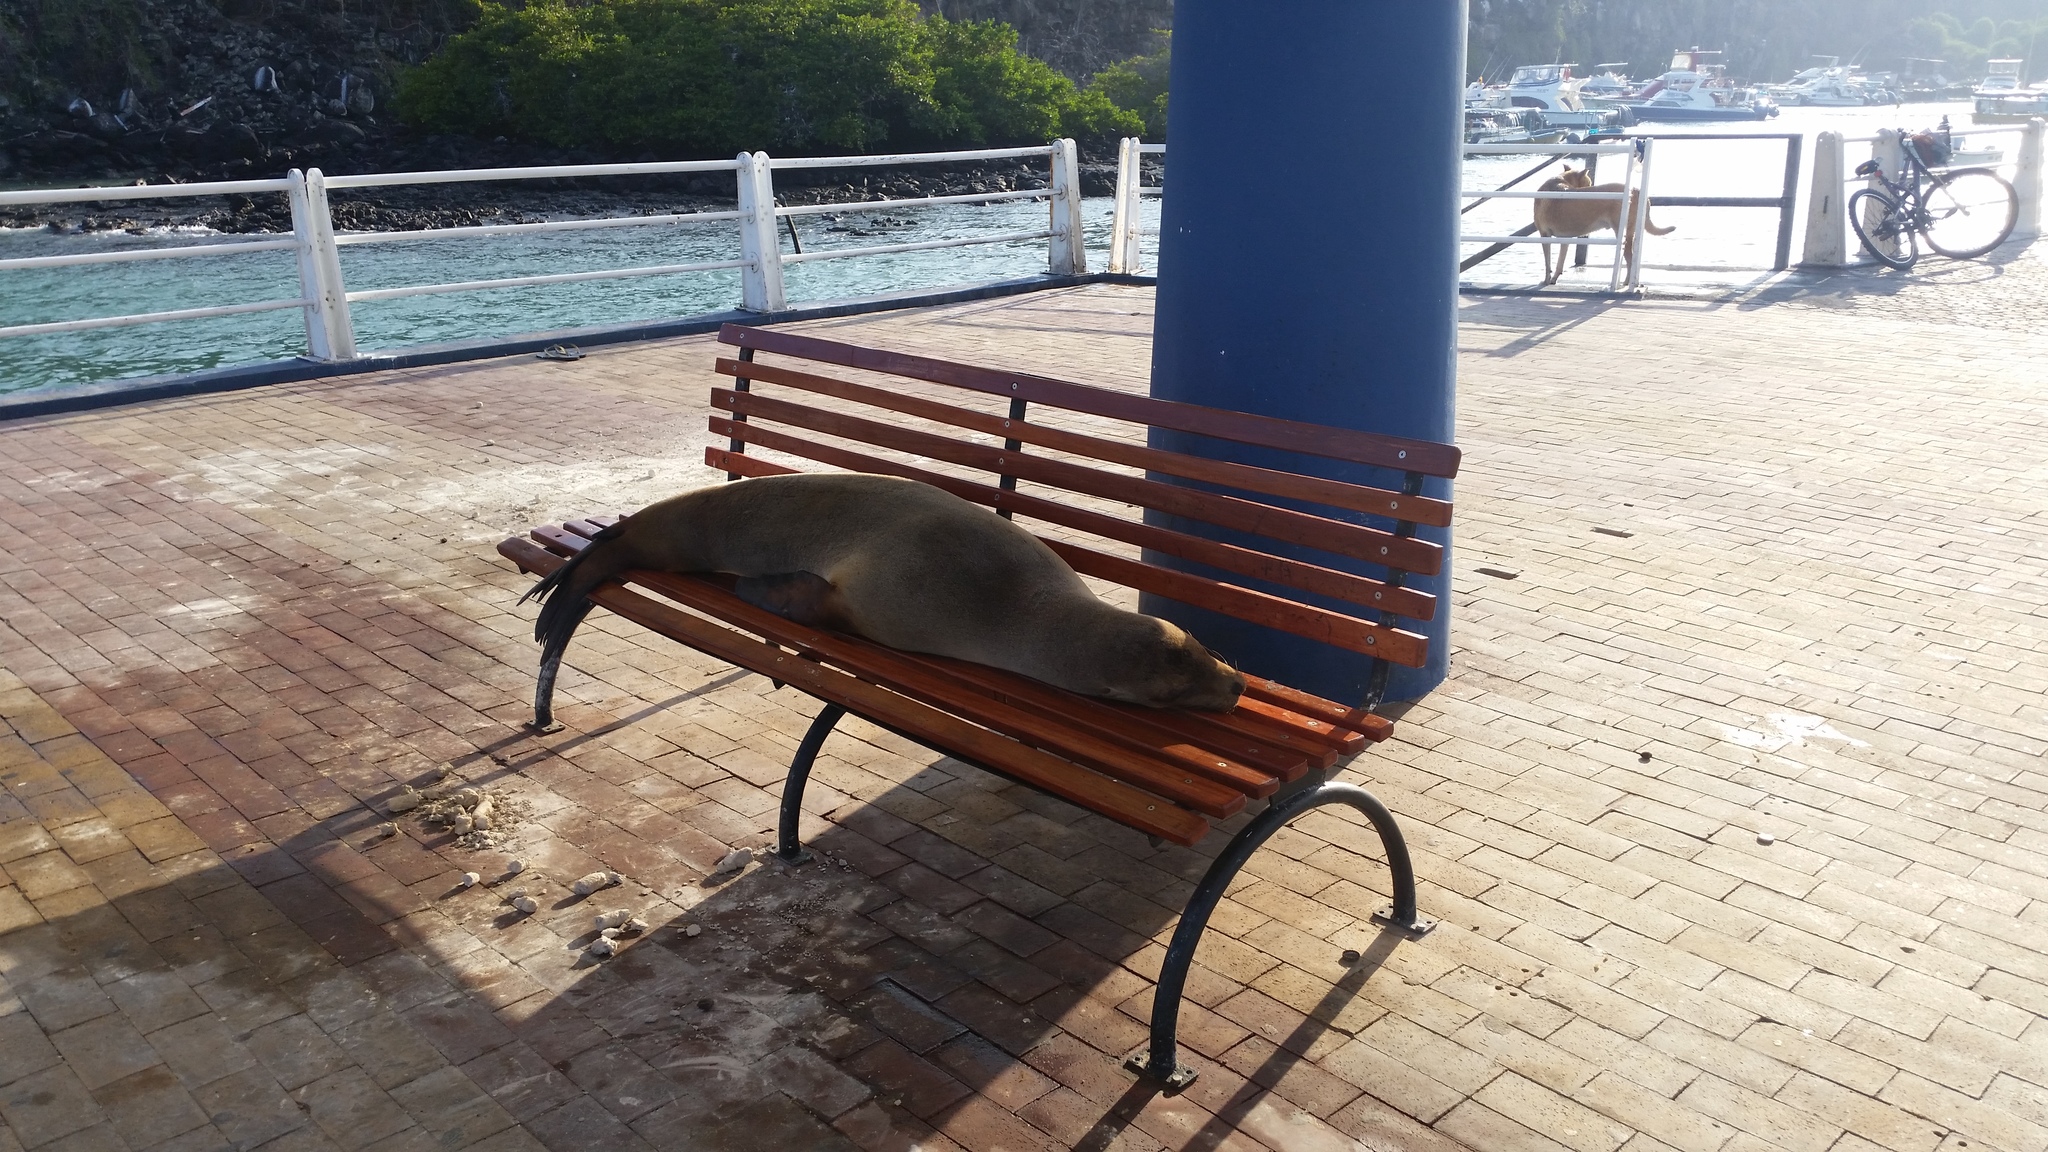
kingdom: Animalia
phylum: Chordata
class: Mammalia
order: Carnivora
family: Otariidae
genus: Zalophus
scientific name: Zalophus wollebaeki
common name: Galapagos sea lion
